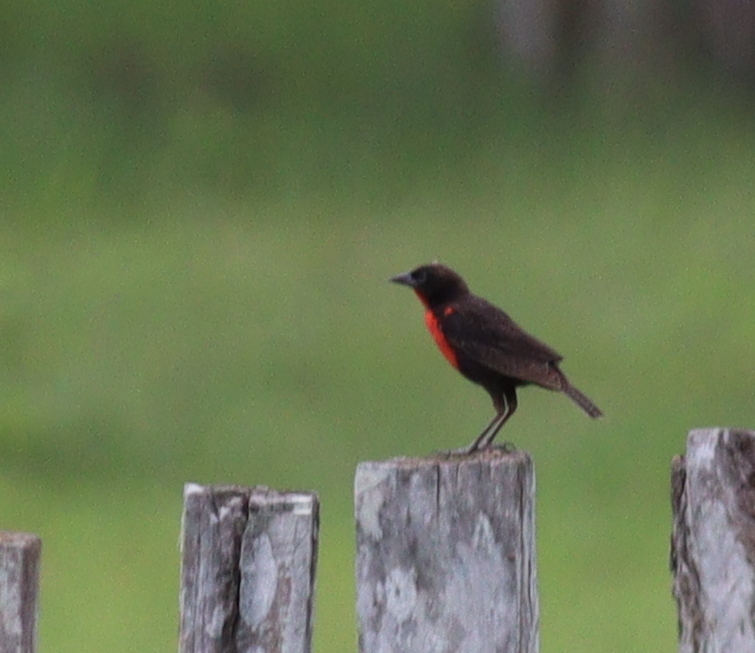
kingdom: Animalia
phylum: Chordata
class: Aves
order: Passeriformes
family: Icteridae
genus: Sturnella
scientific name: Sturnella militaris
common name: Red-breasted blackbird
